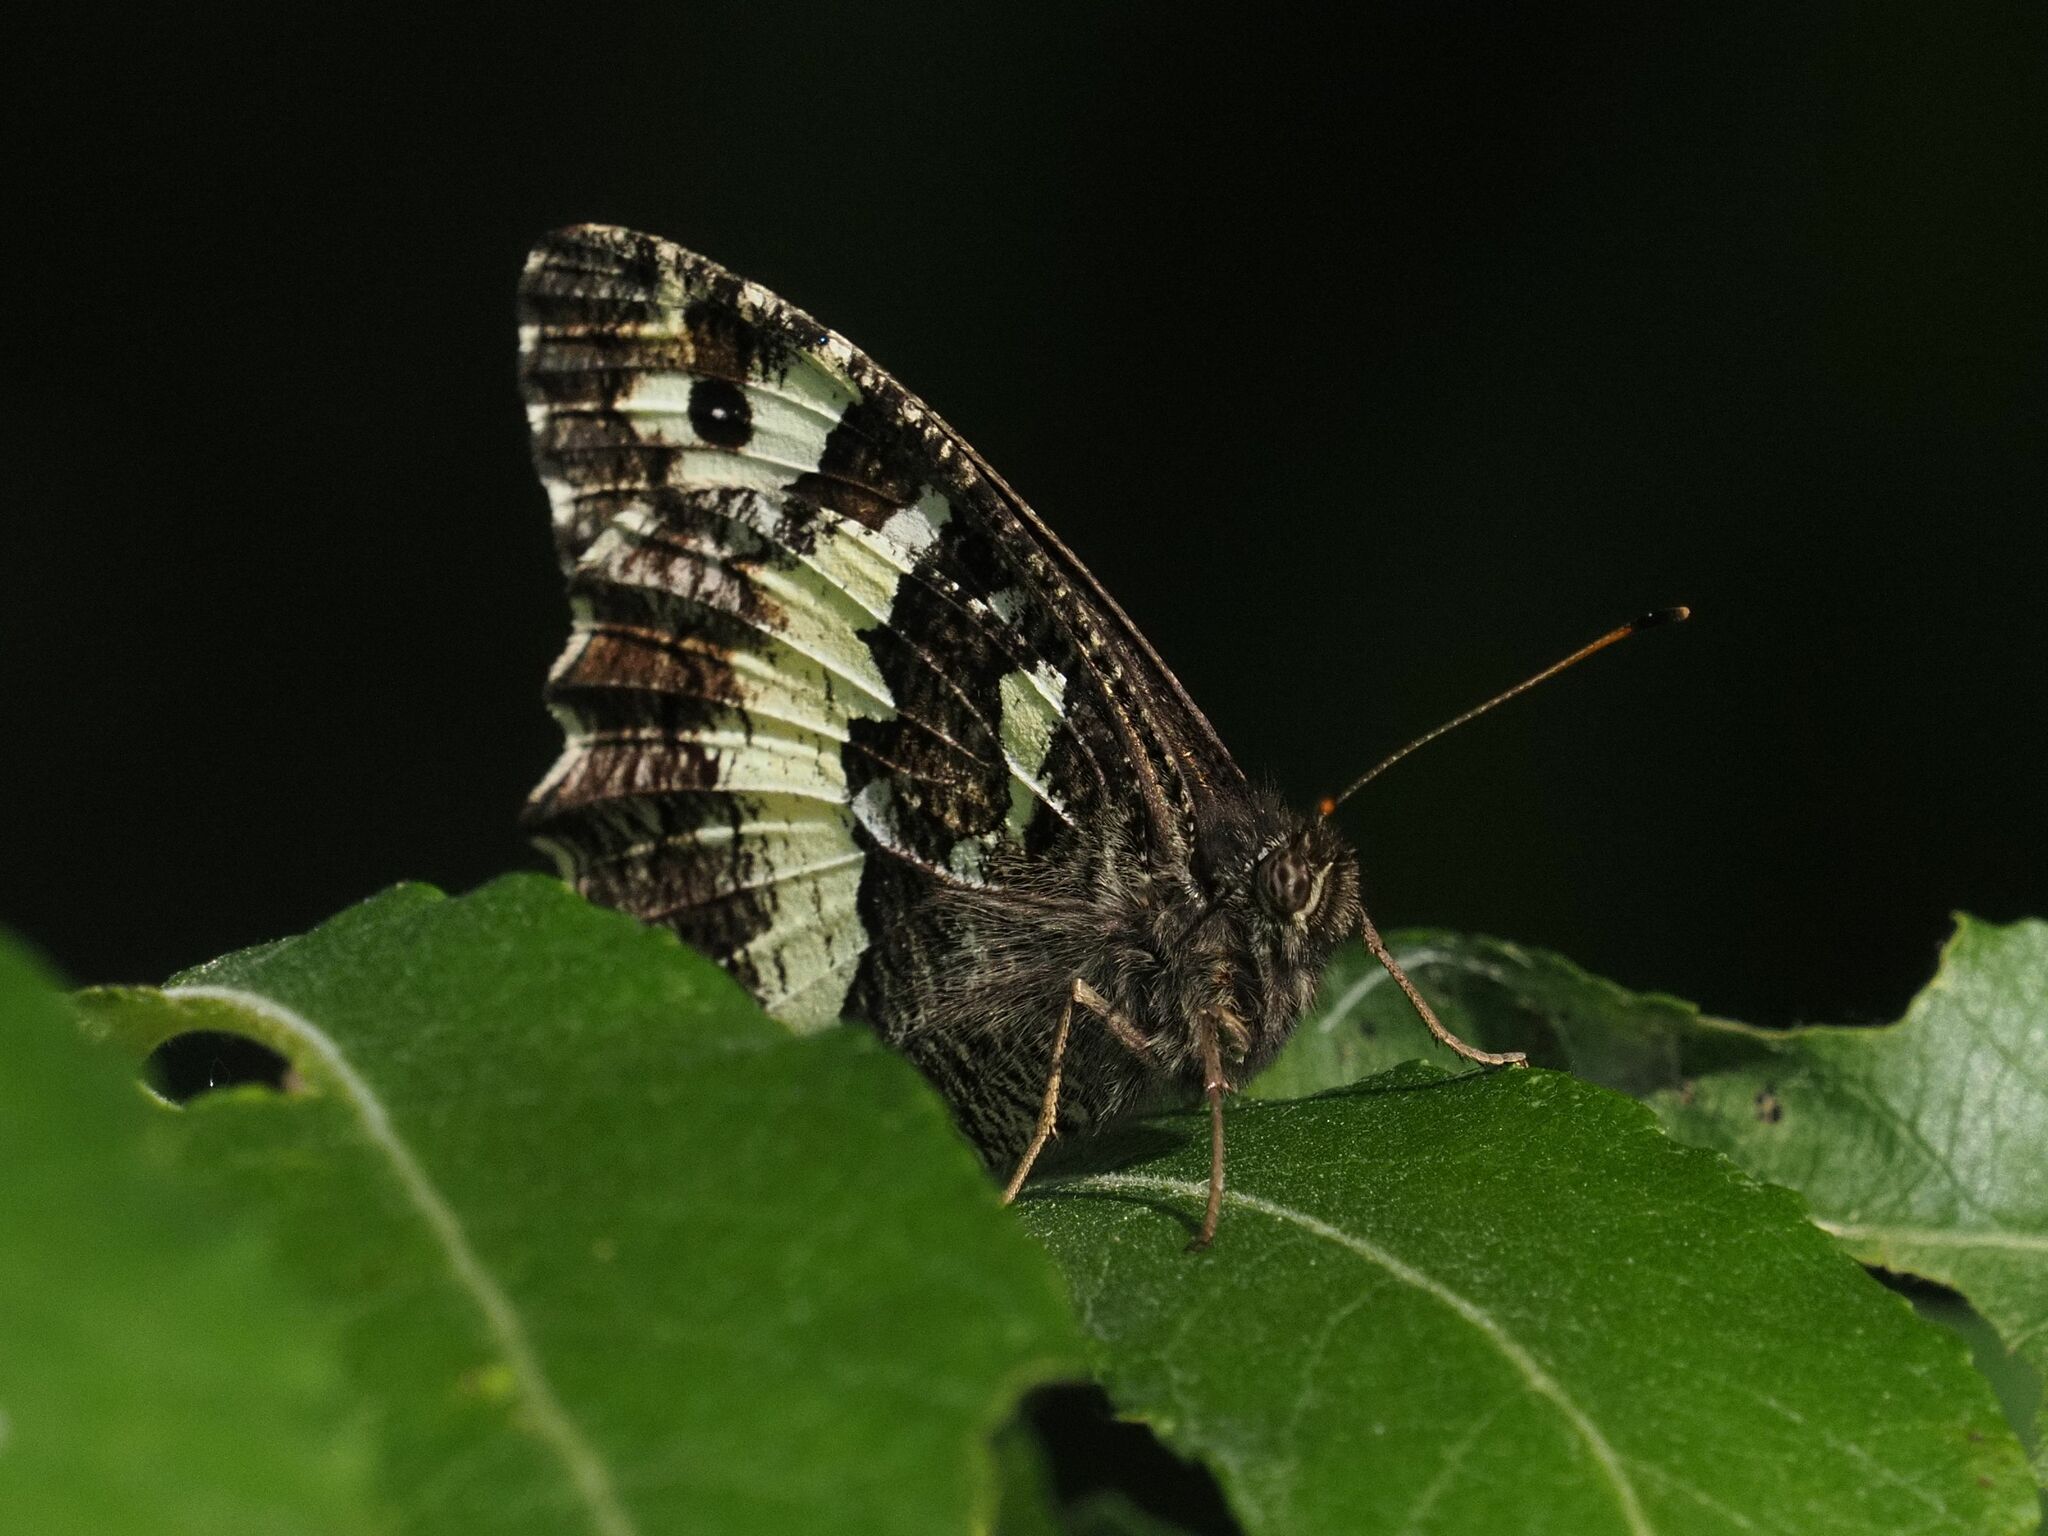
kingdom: Animalia
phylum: Arthropoda
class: Insecta
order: Lepidoptera
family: Lycaenidae
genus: Loweia
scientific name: Loweia tityrus
